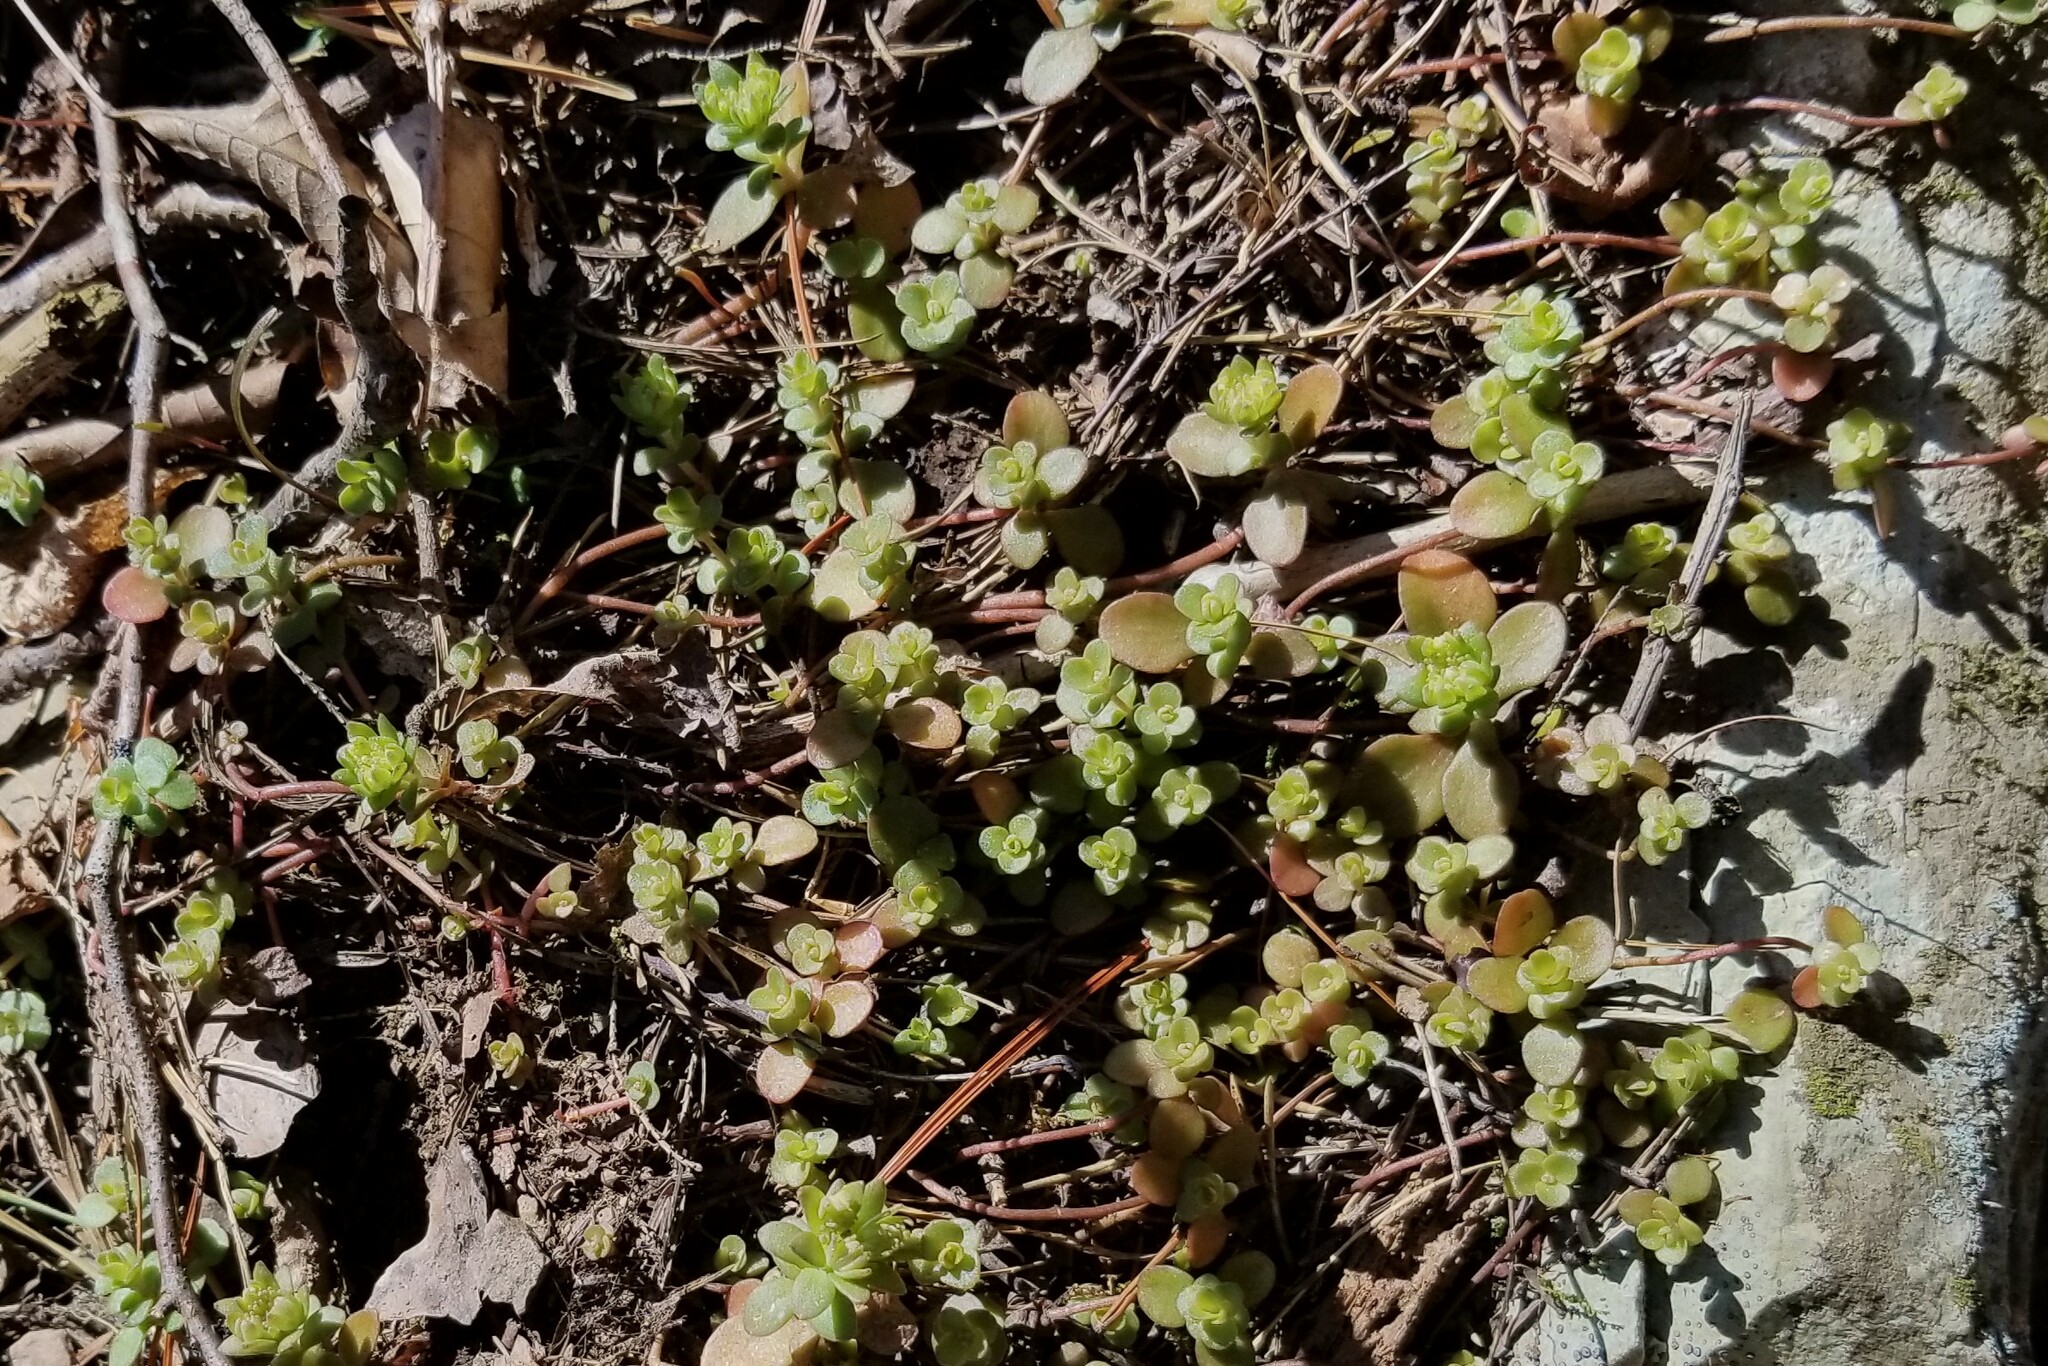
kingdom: Plantae
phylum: Tracheophyta
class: Magnoliopsida
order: Saxifragales
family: Crassulaceae
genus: Sedum
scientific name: Sedum ternatum
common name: Wild stonecrop
